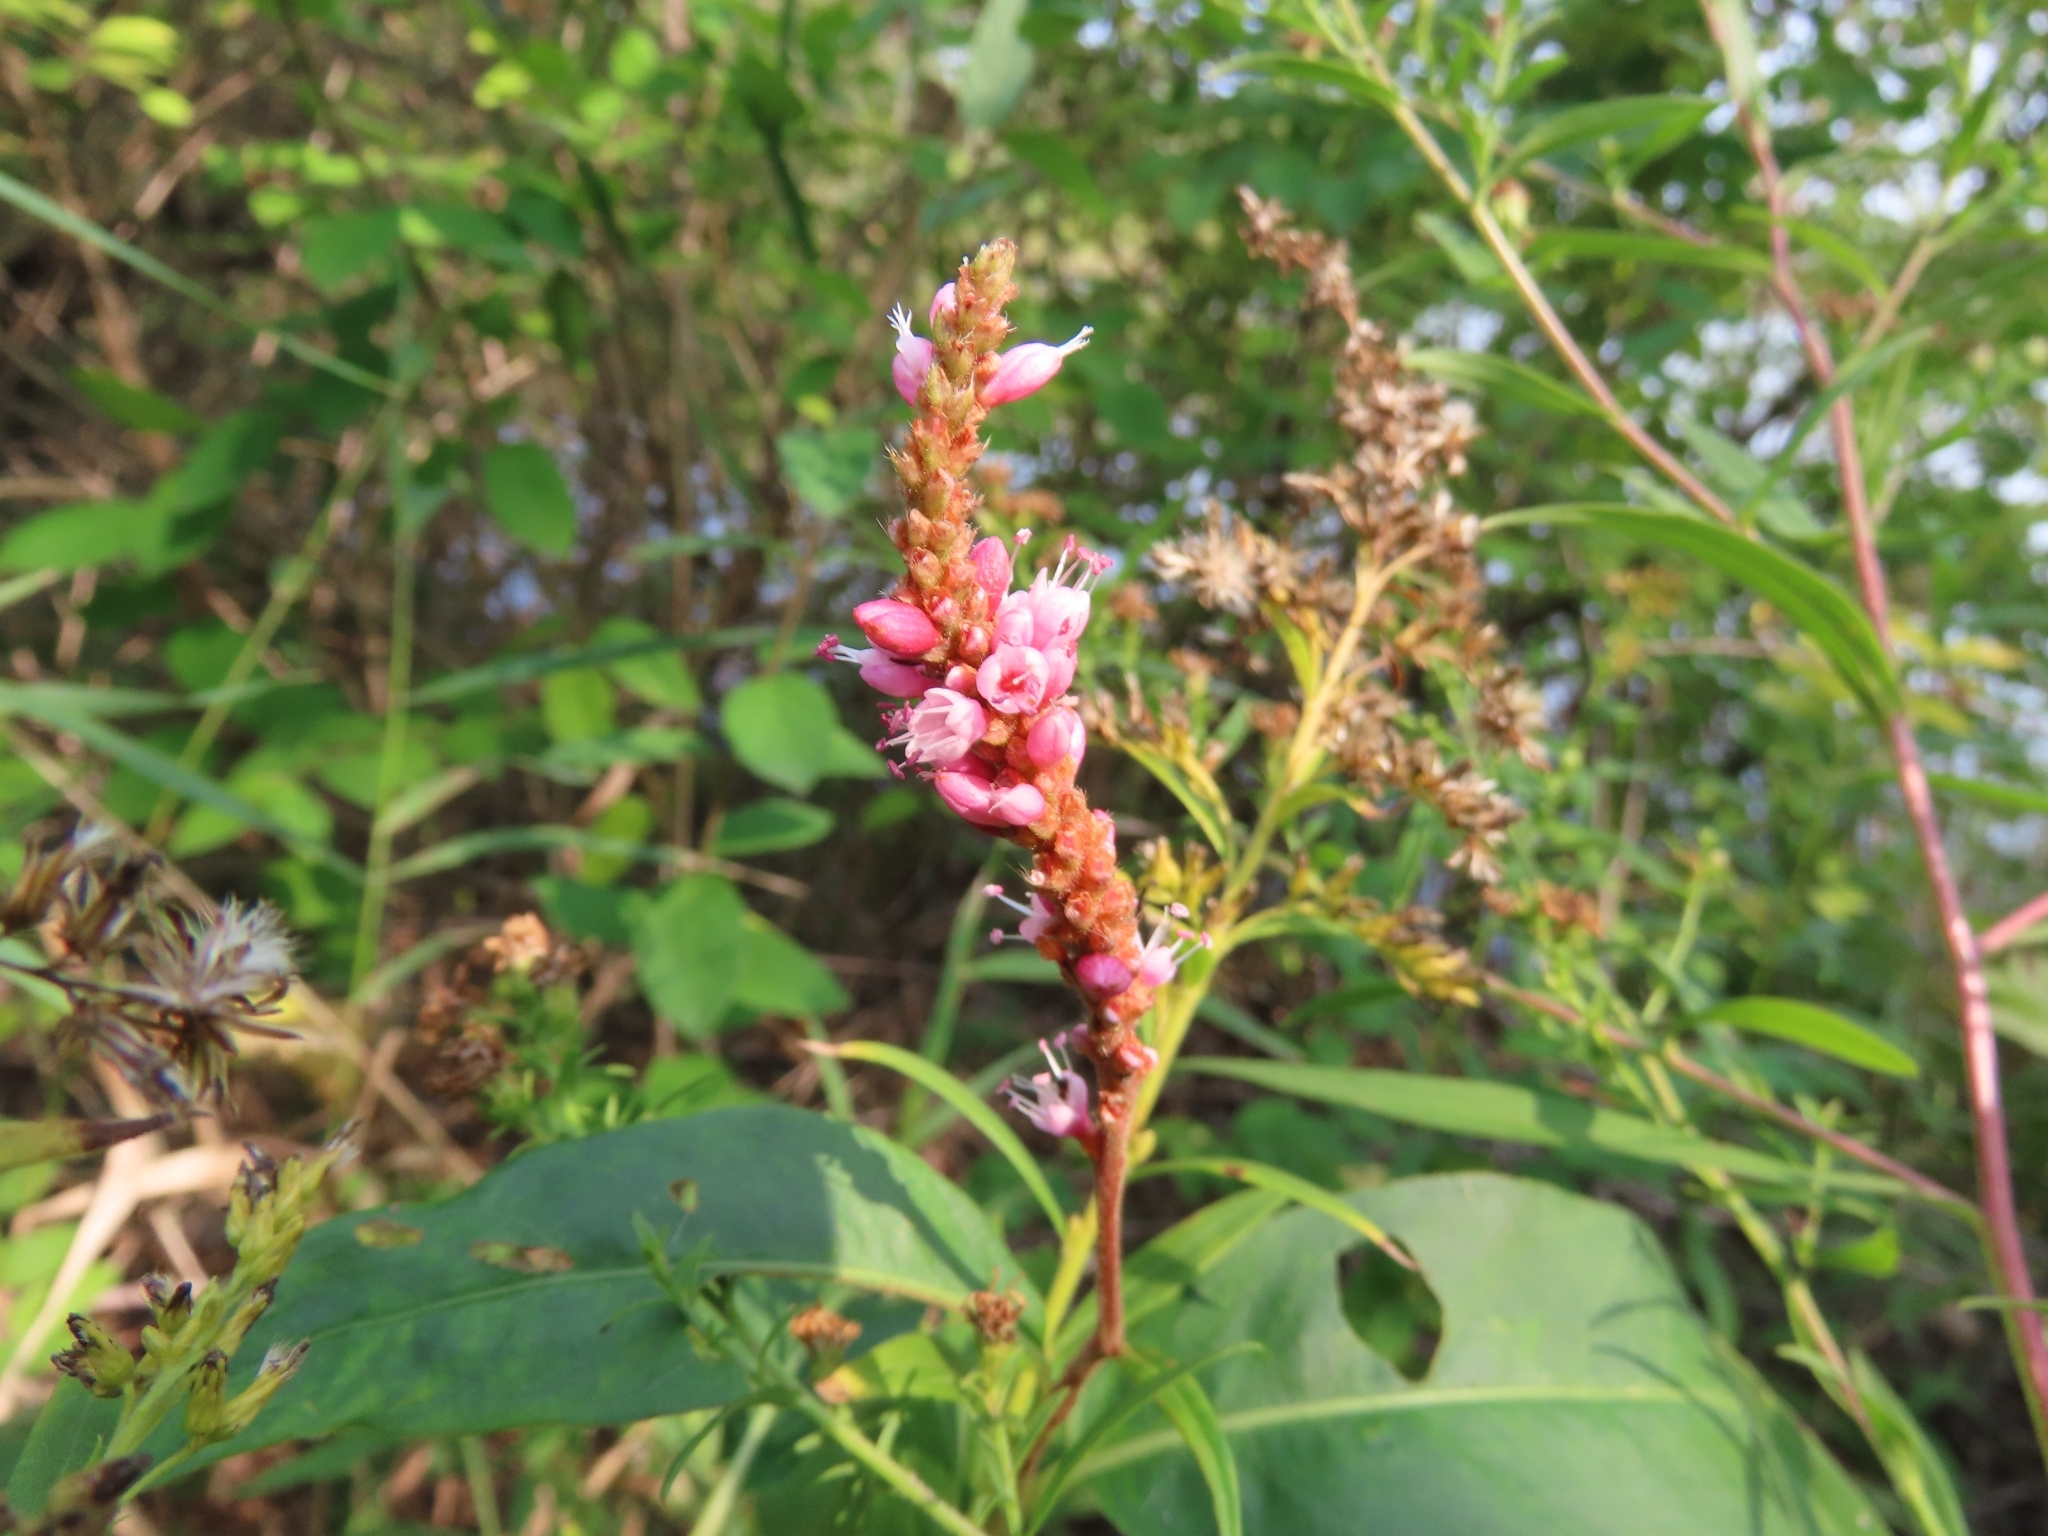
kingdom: Plantae
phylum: Tracheophyta
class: Magnoliopsida
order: Caryophyllales
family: Polygonaceae
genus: Persicaria
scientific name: Persicaria amphibia
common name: Amphibious bistort
